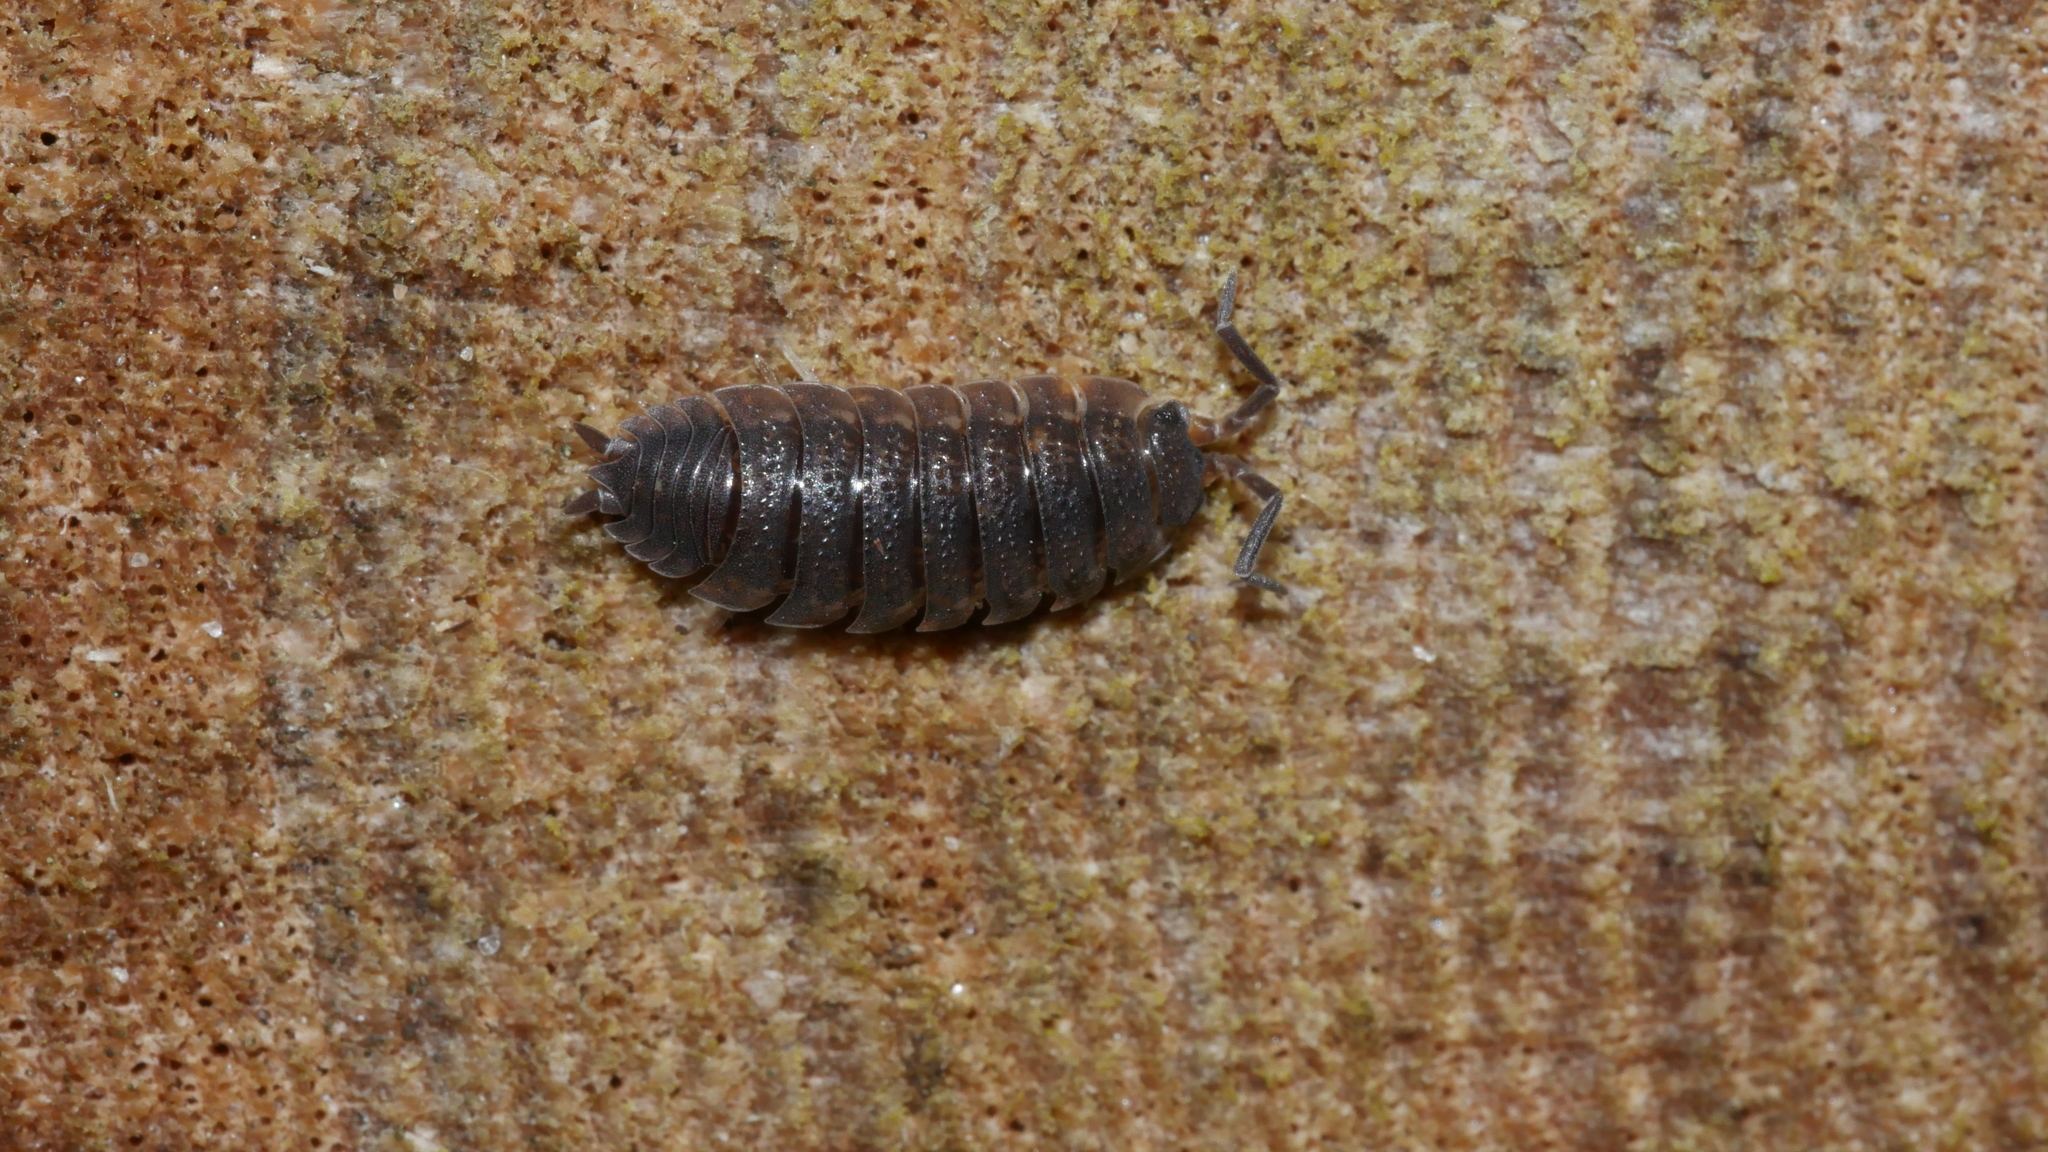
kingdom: Animalia
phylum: Arthropoda
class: Malacostraca
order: Isopoda
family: Porcellionidae
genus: Porcellio
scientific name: Porcellio scaber
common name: Common rough woodlouse
